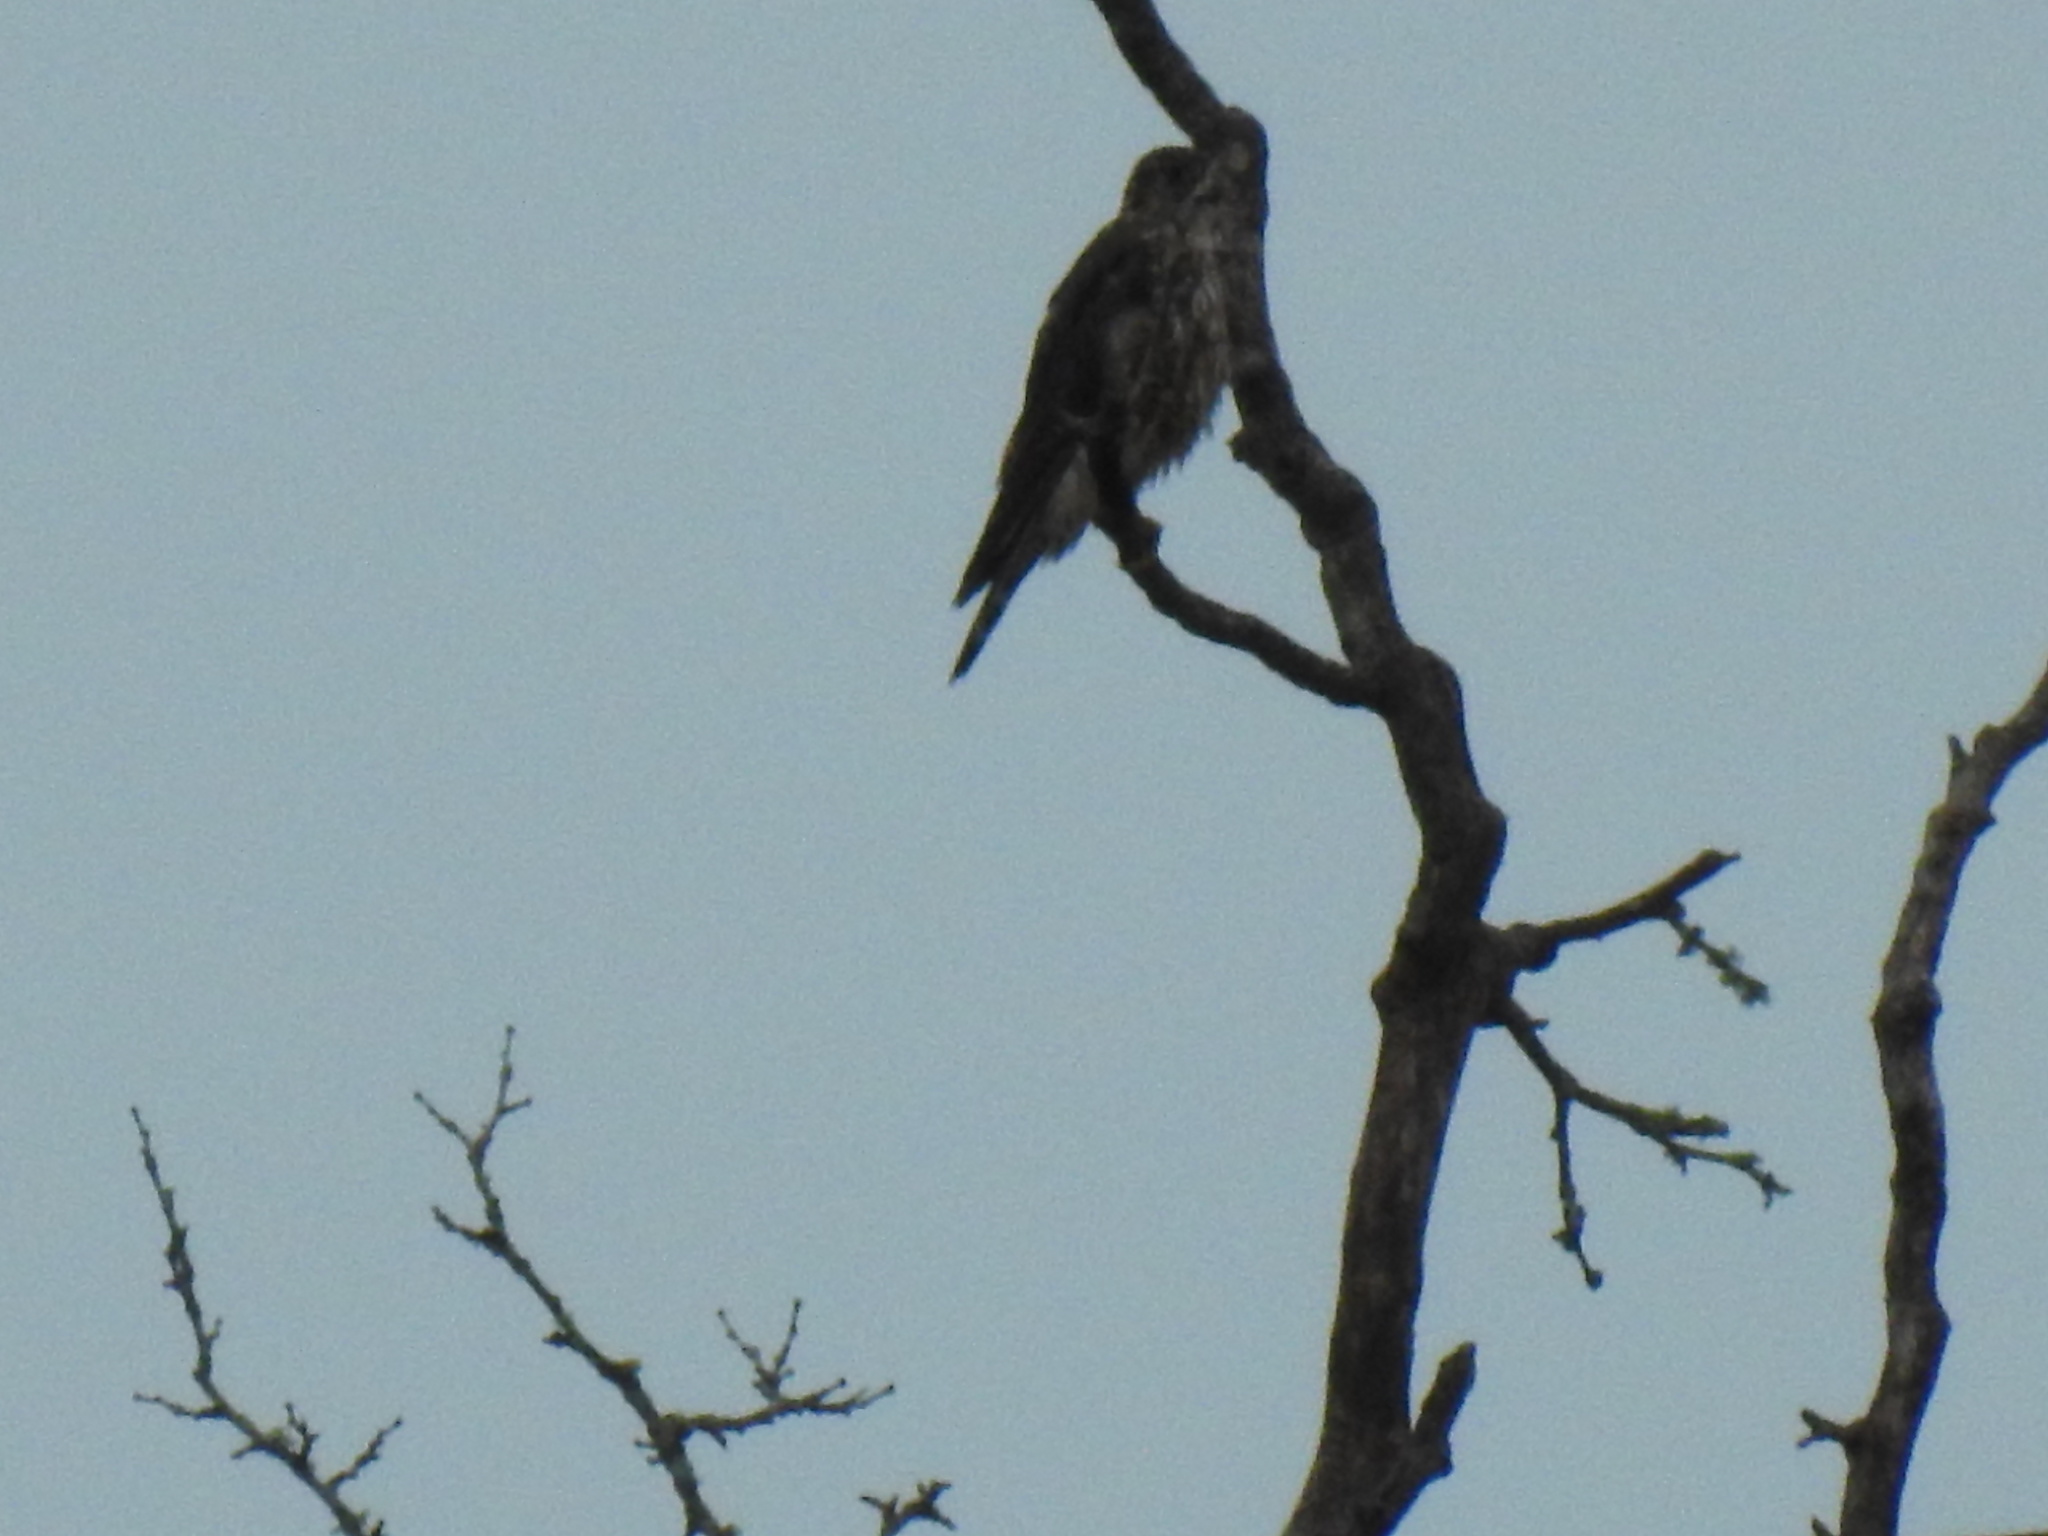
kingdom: Animalia
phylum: Chordata
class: Aves
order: Falconiformes
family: Falconidae
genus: Falco
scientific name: Falco columbarius
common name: Merlin
